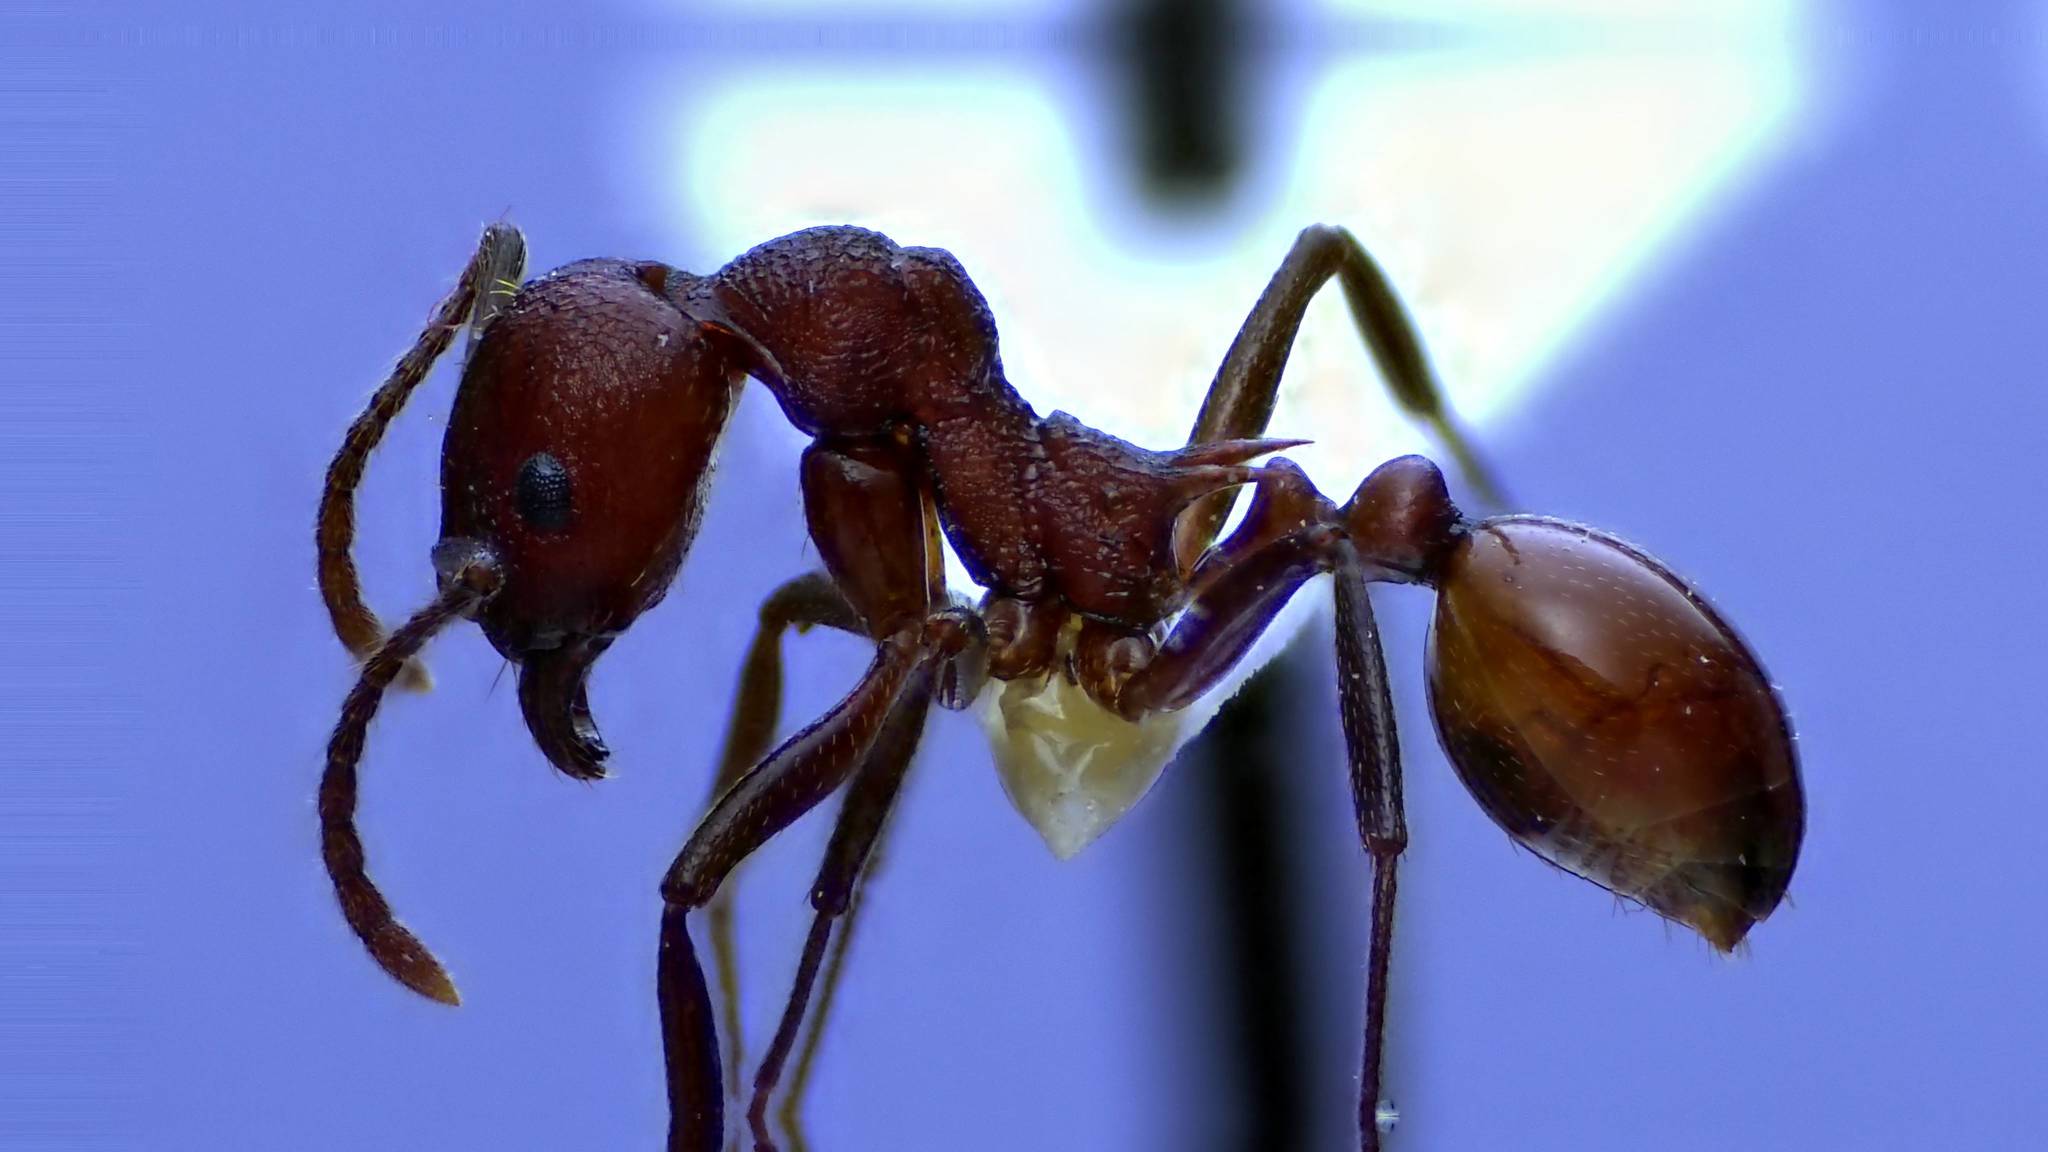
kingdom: Animalia
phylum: Arthropoda
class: Insecta
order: Hymenoptera
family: Formicidae
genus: Aphaenogaster
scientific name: Aphaenogaster tennesseensis
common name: Tennessee thread-waisted ant
